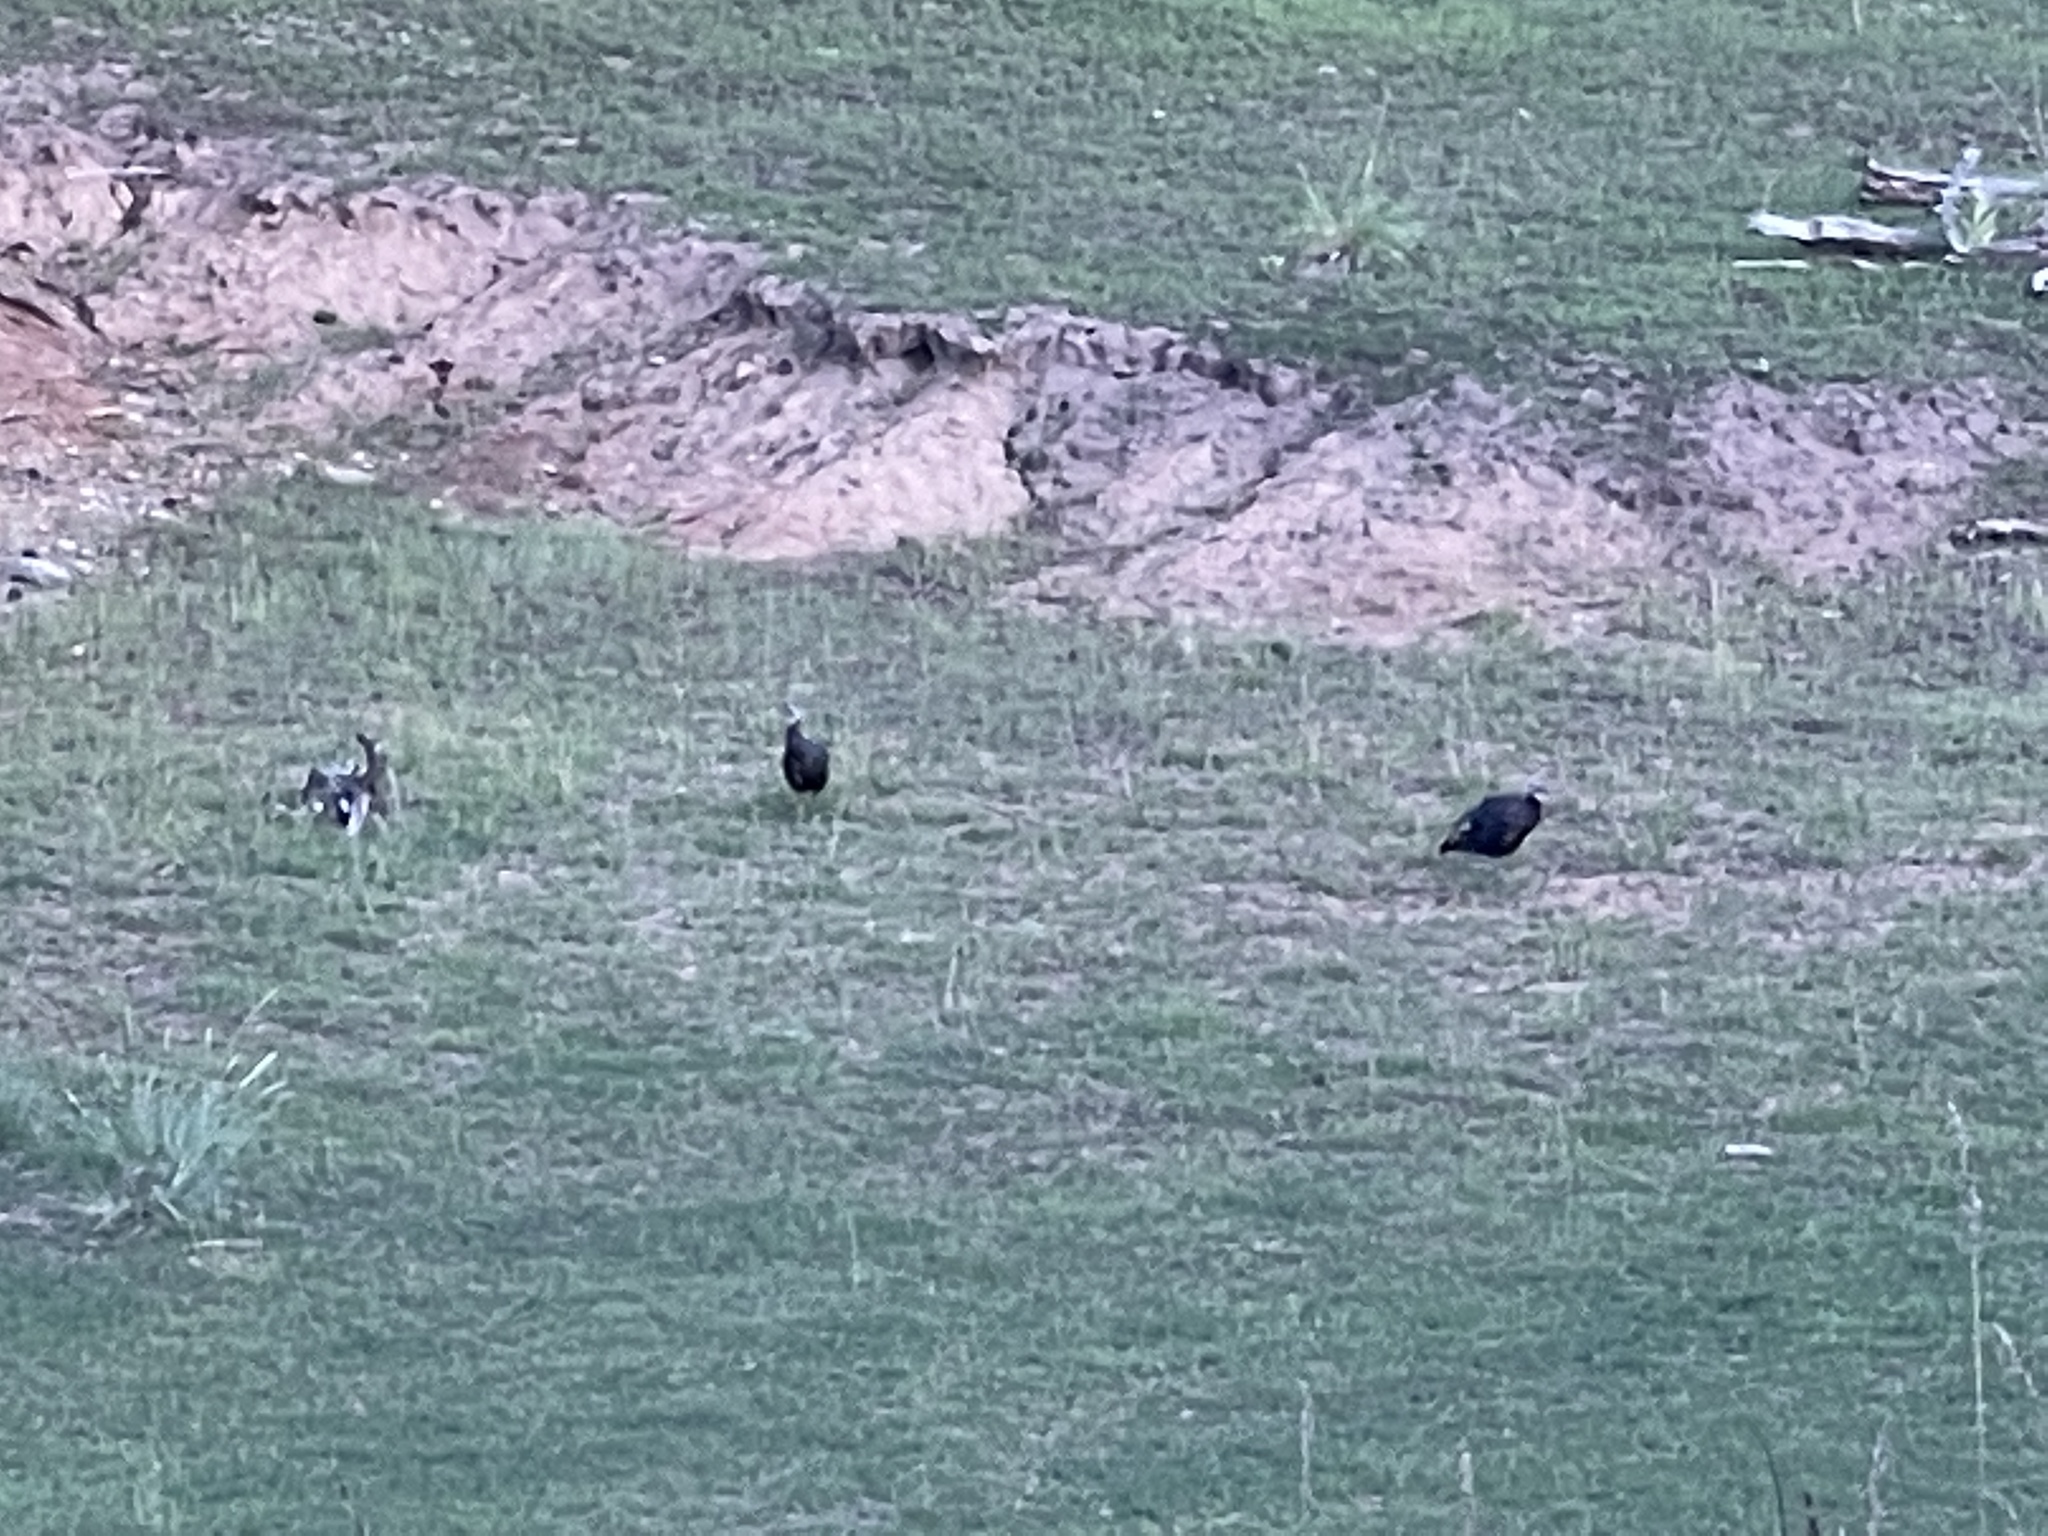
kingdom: Animalia
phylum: Chordata
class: Aves
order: Galliformes
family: Phasianidae
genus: Meleagris
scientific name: Meleagris gallopavo
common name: Wild turkey
